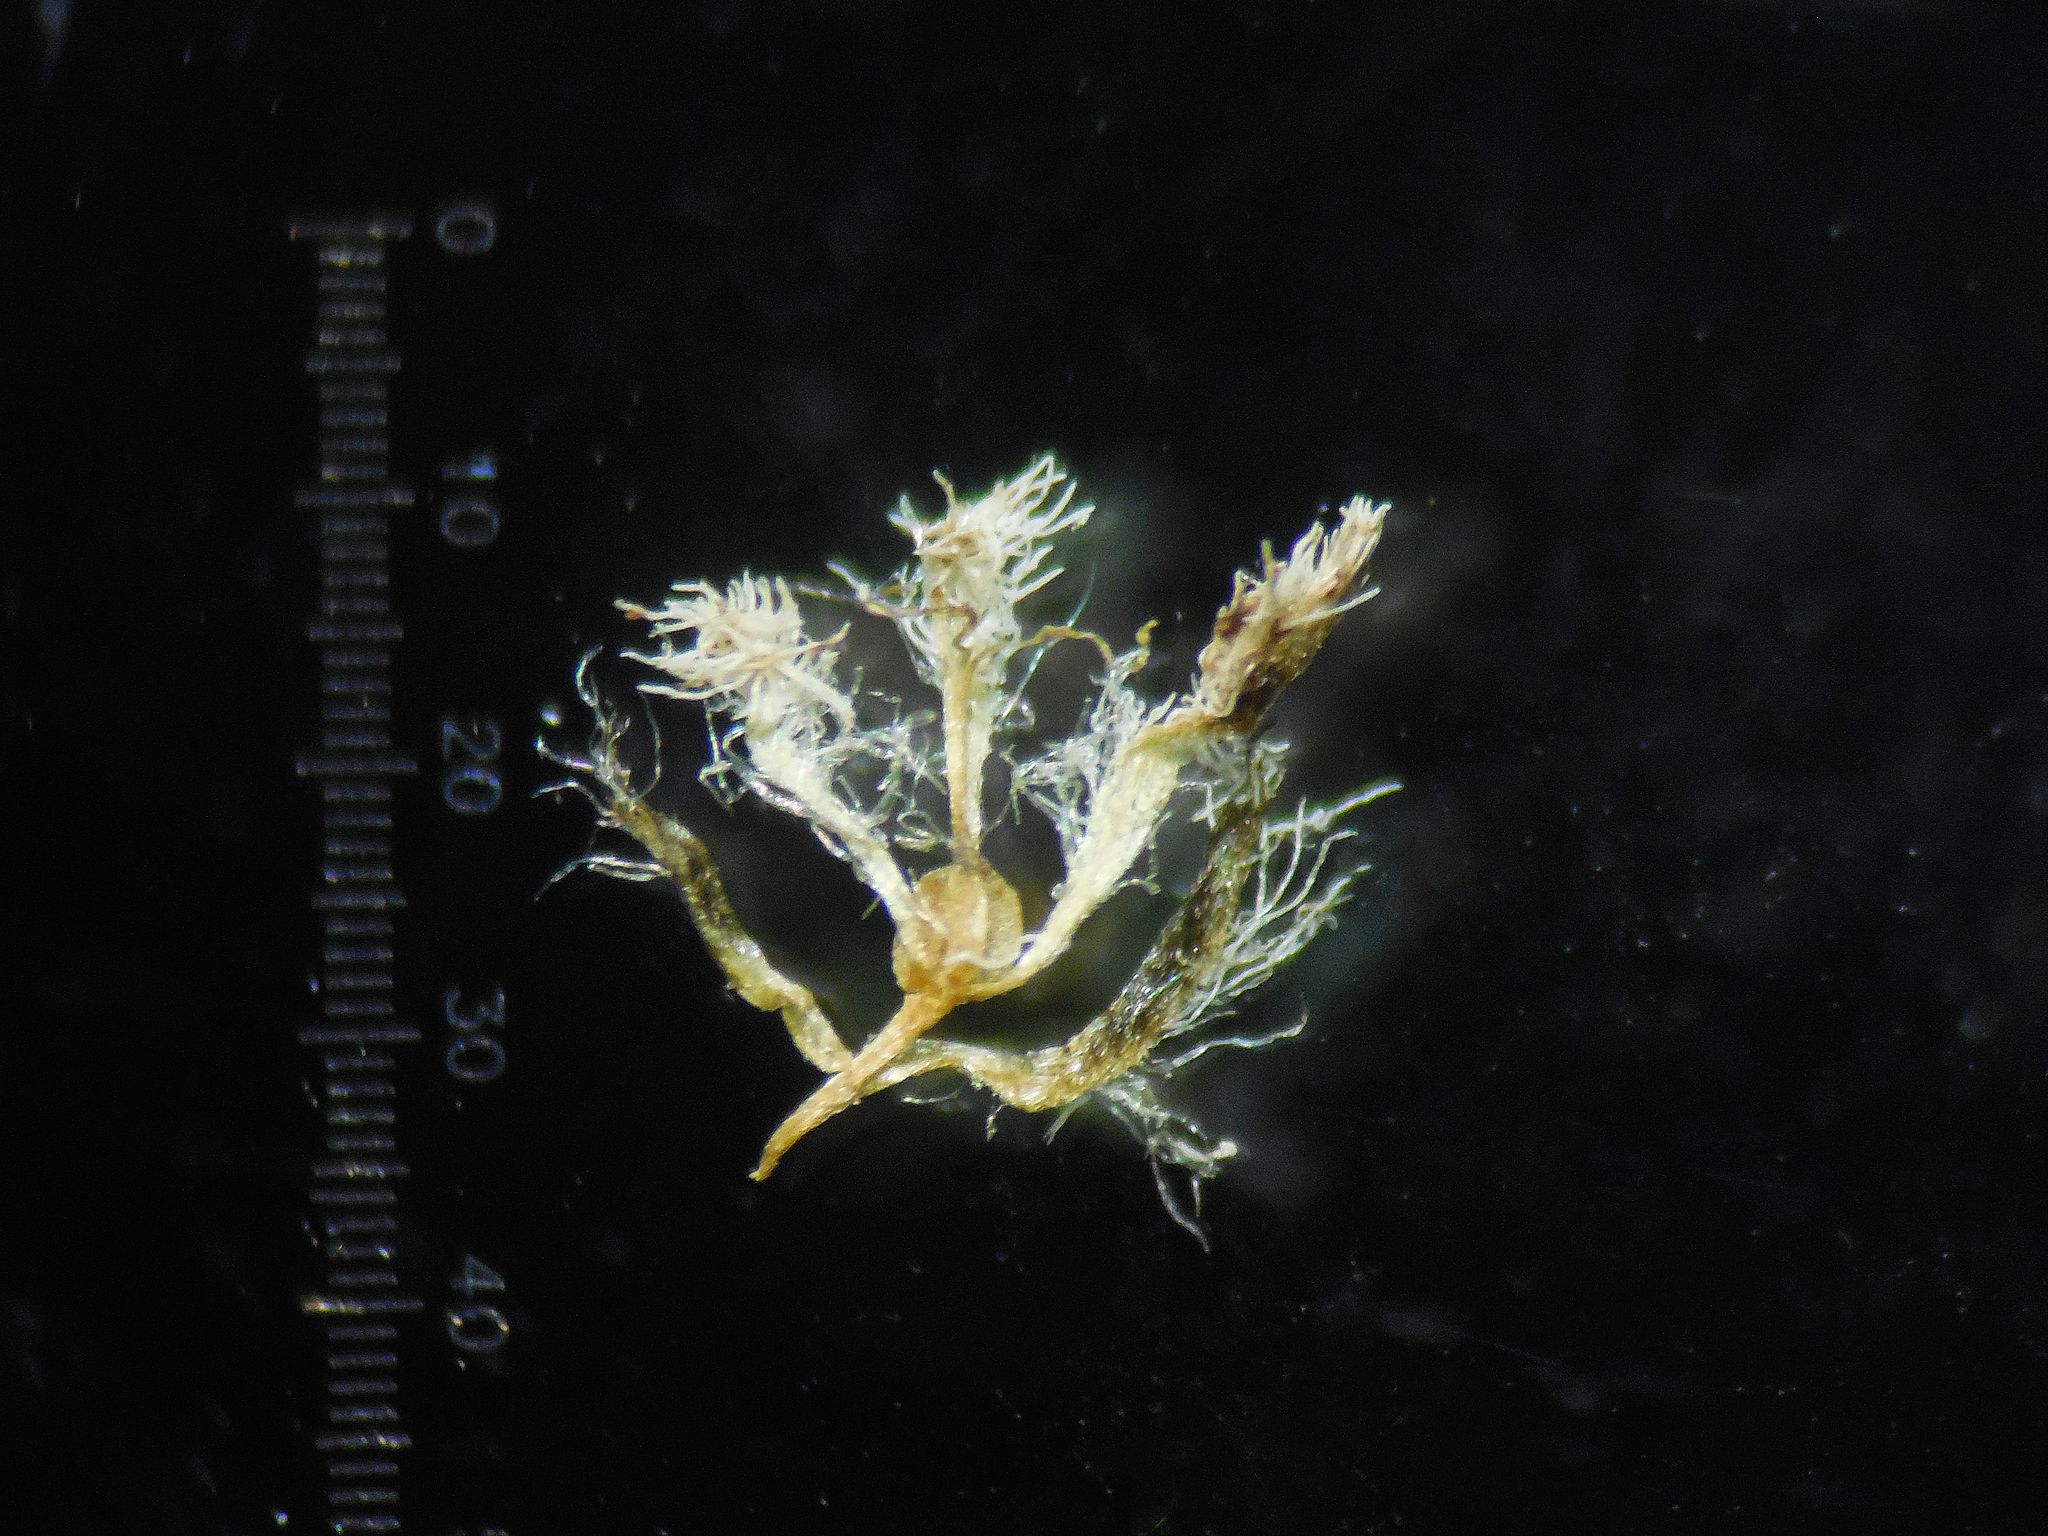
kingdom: Plantae
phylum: Tracheophyta
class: Liliopsida
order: Poales
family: Eriocaulaceae
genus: Eriocaulon
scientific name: Eriocaulon breviscapum
